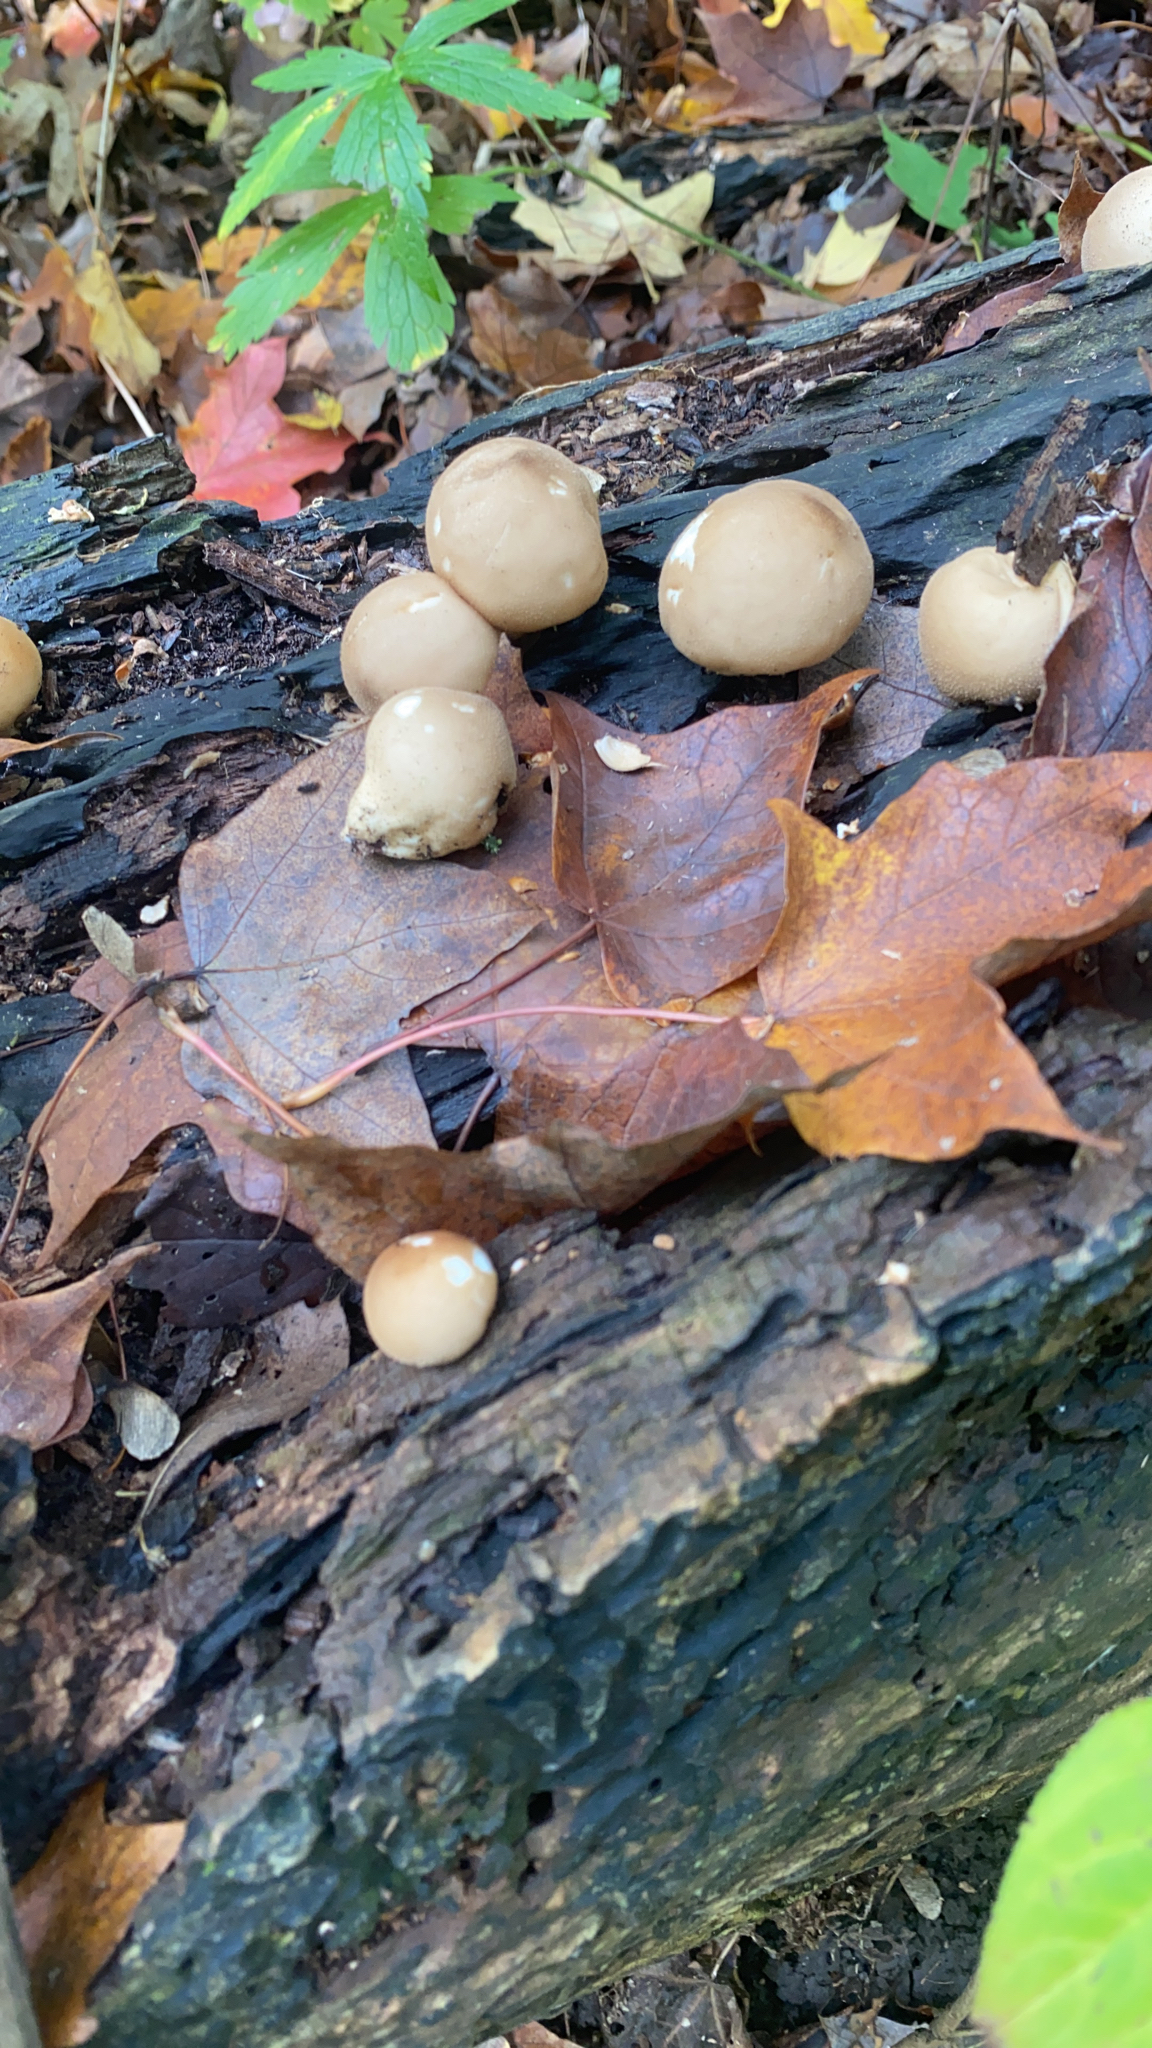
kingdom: Fungi
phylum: Basidiomycota
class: Agaricomycetes
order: Agaricales
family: Lycoperdaceae
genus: Apioperdon
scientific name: Apioperdon pyriforme
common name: Pear-shaped puffball
